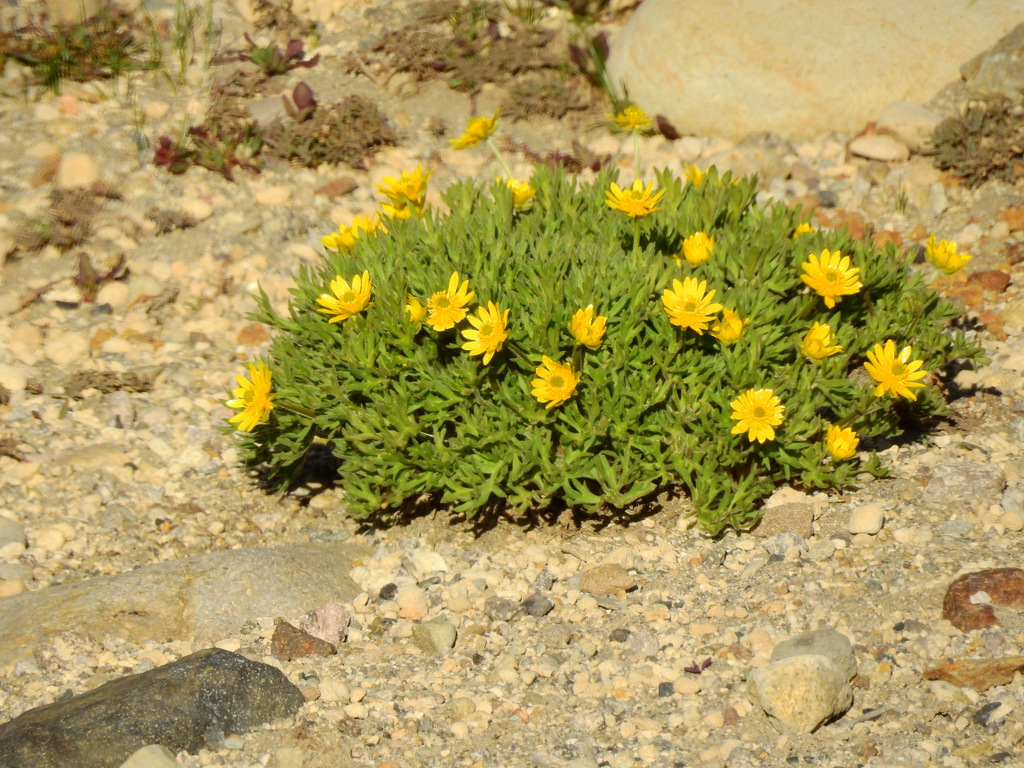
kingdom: Plantae
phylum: Tracheophyta
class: Magnoliopsida
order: Ranunculales
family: Ranunculaceae
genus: Ranunculus
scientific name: Ranunculus peduncularis
